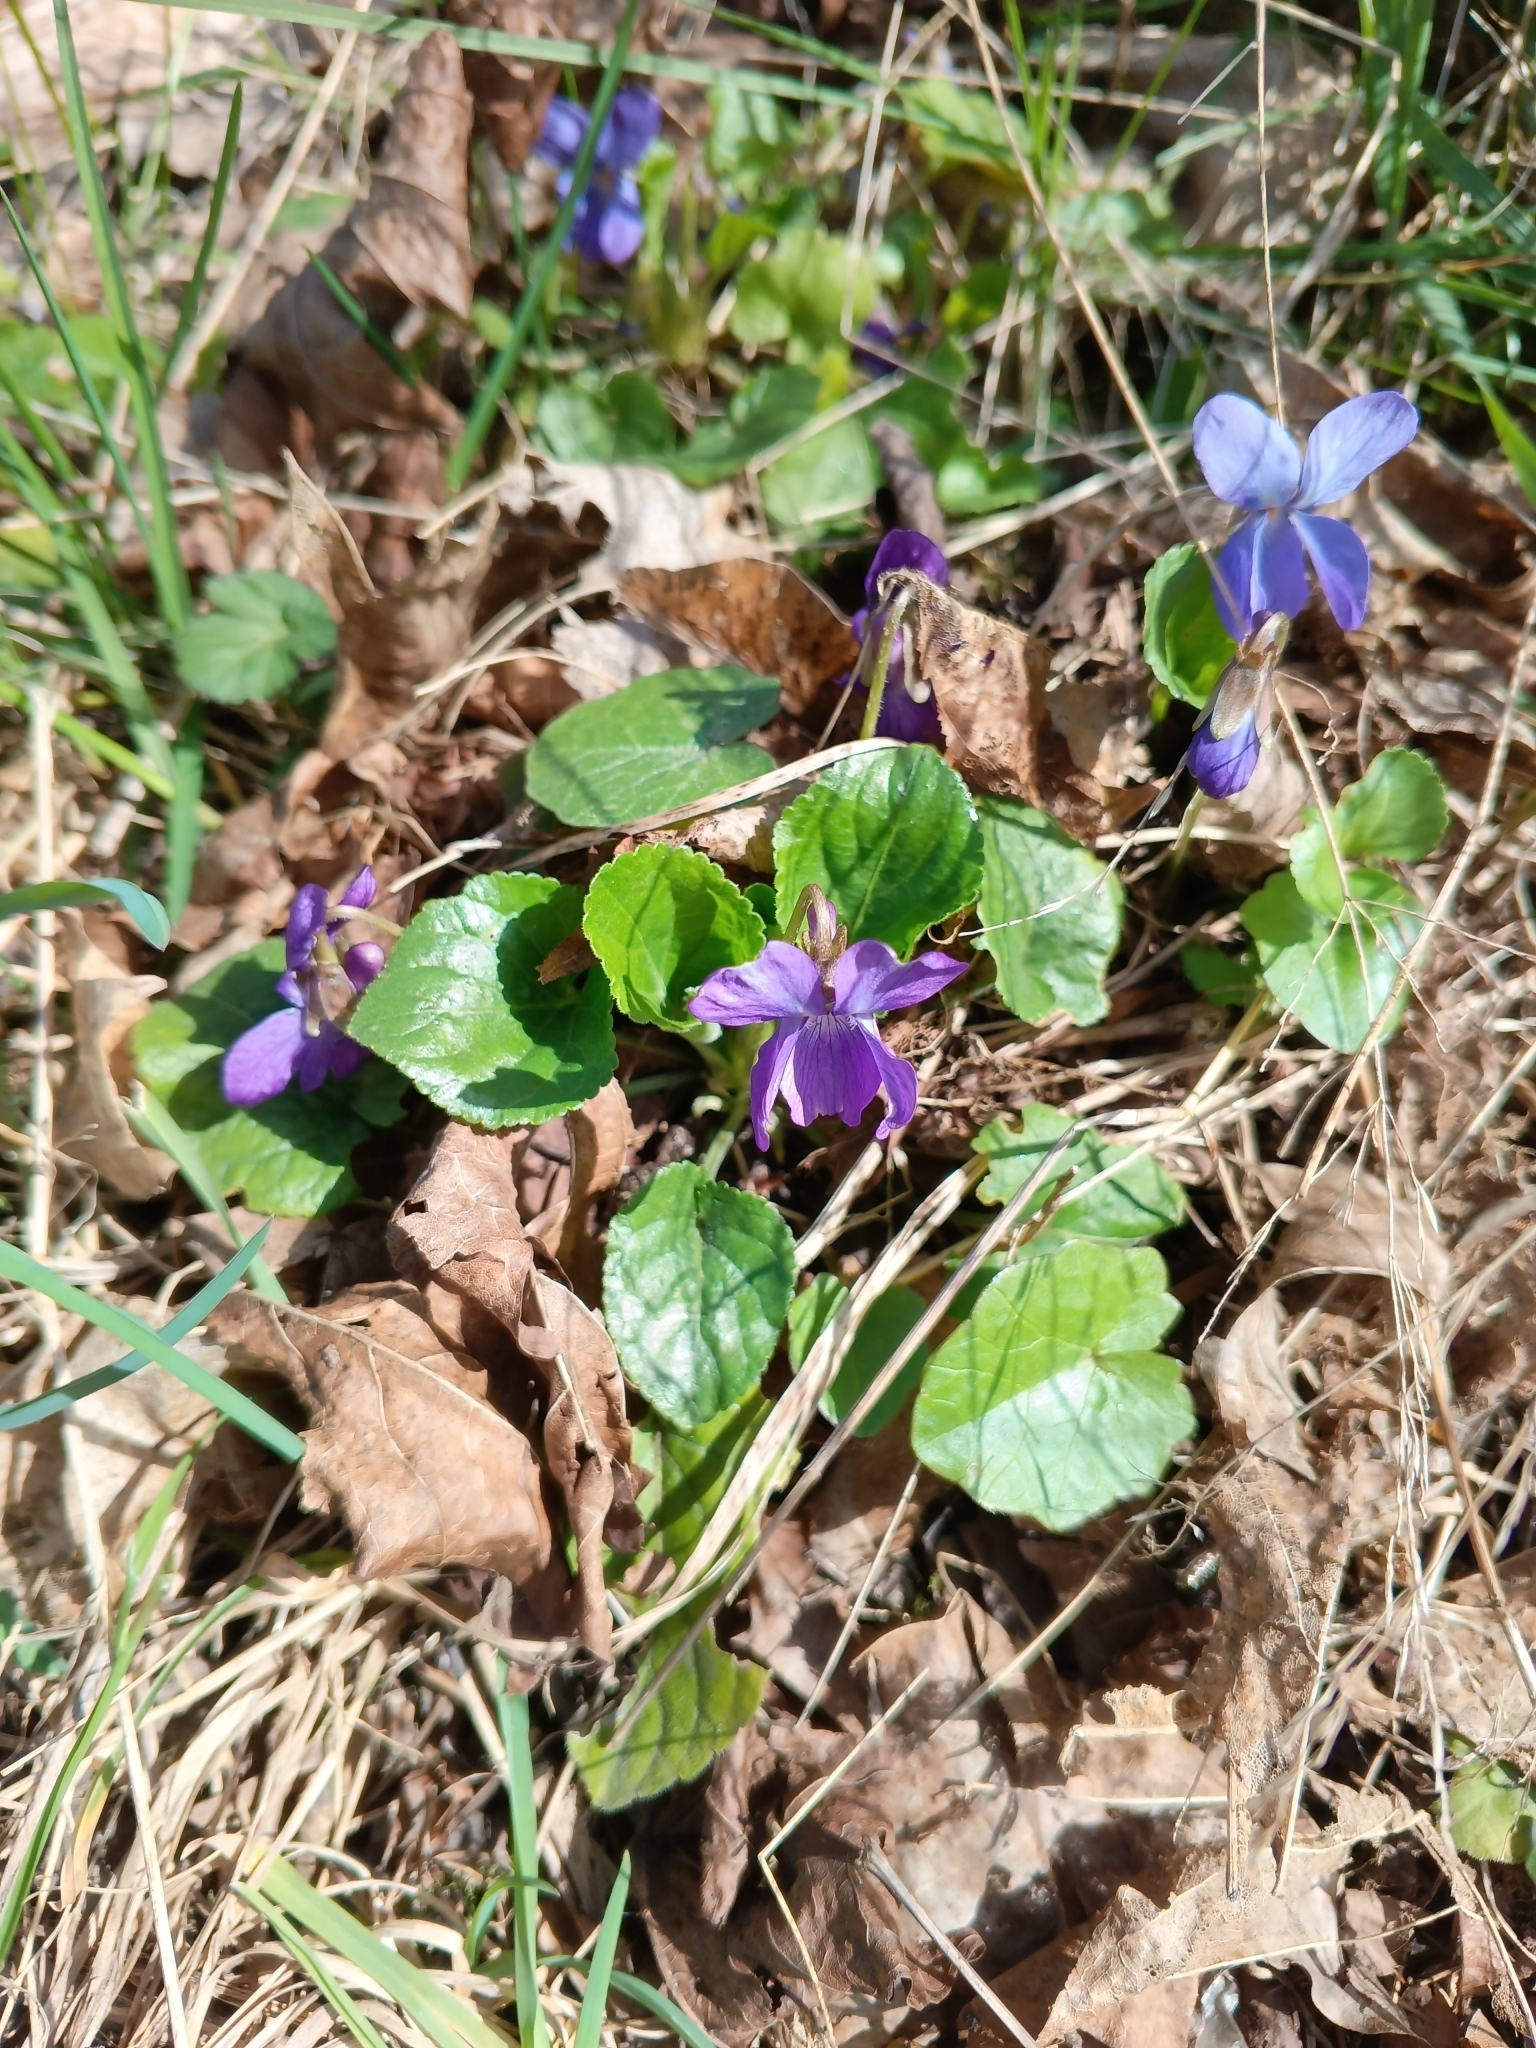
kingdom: Plantae
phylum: Tracheophyta
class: Magnoliopsida
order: Malpighiales
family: Violaceae
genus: Viola
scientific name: Viola odorata
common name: Sweet violet
